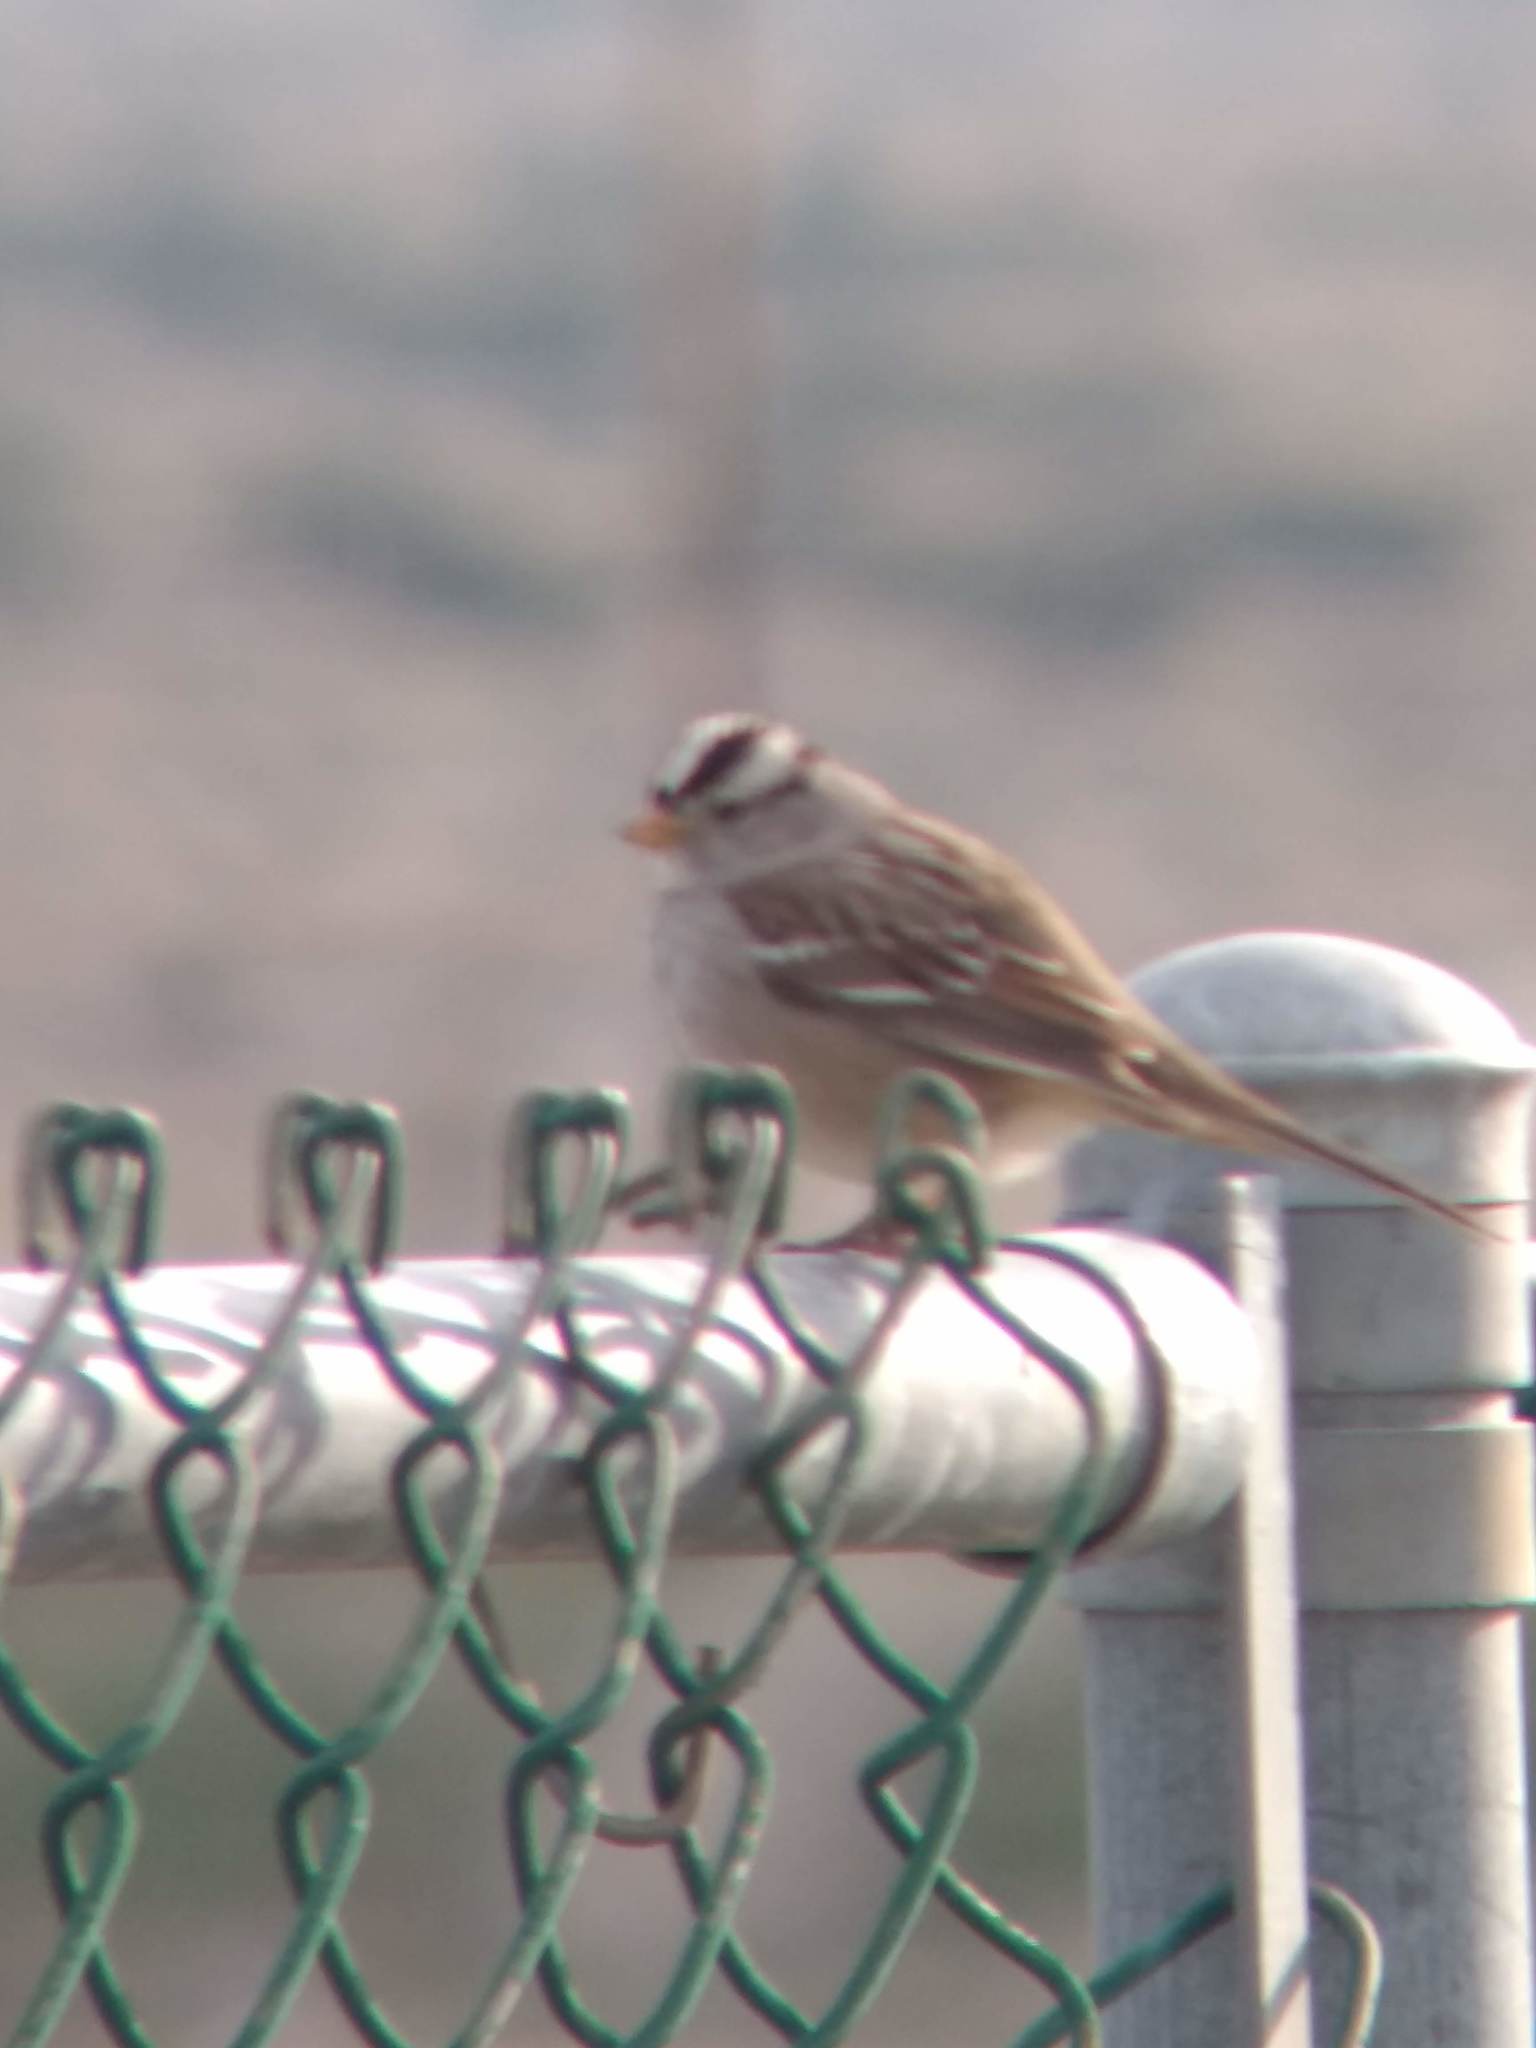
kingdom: Animalia
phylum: Chordata
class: Aves
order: Passeriformes
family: Passerellidae
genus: Zonotrichia
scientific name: Zonotrichia leucophrys
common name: White-crowned sparrow
